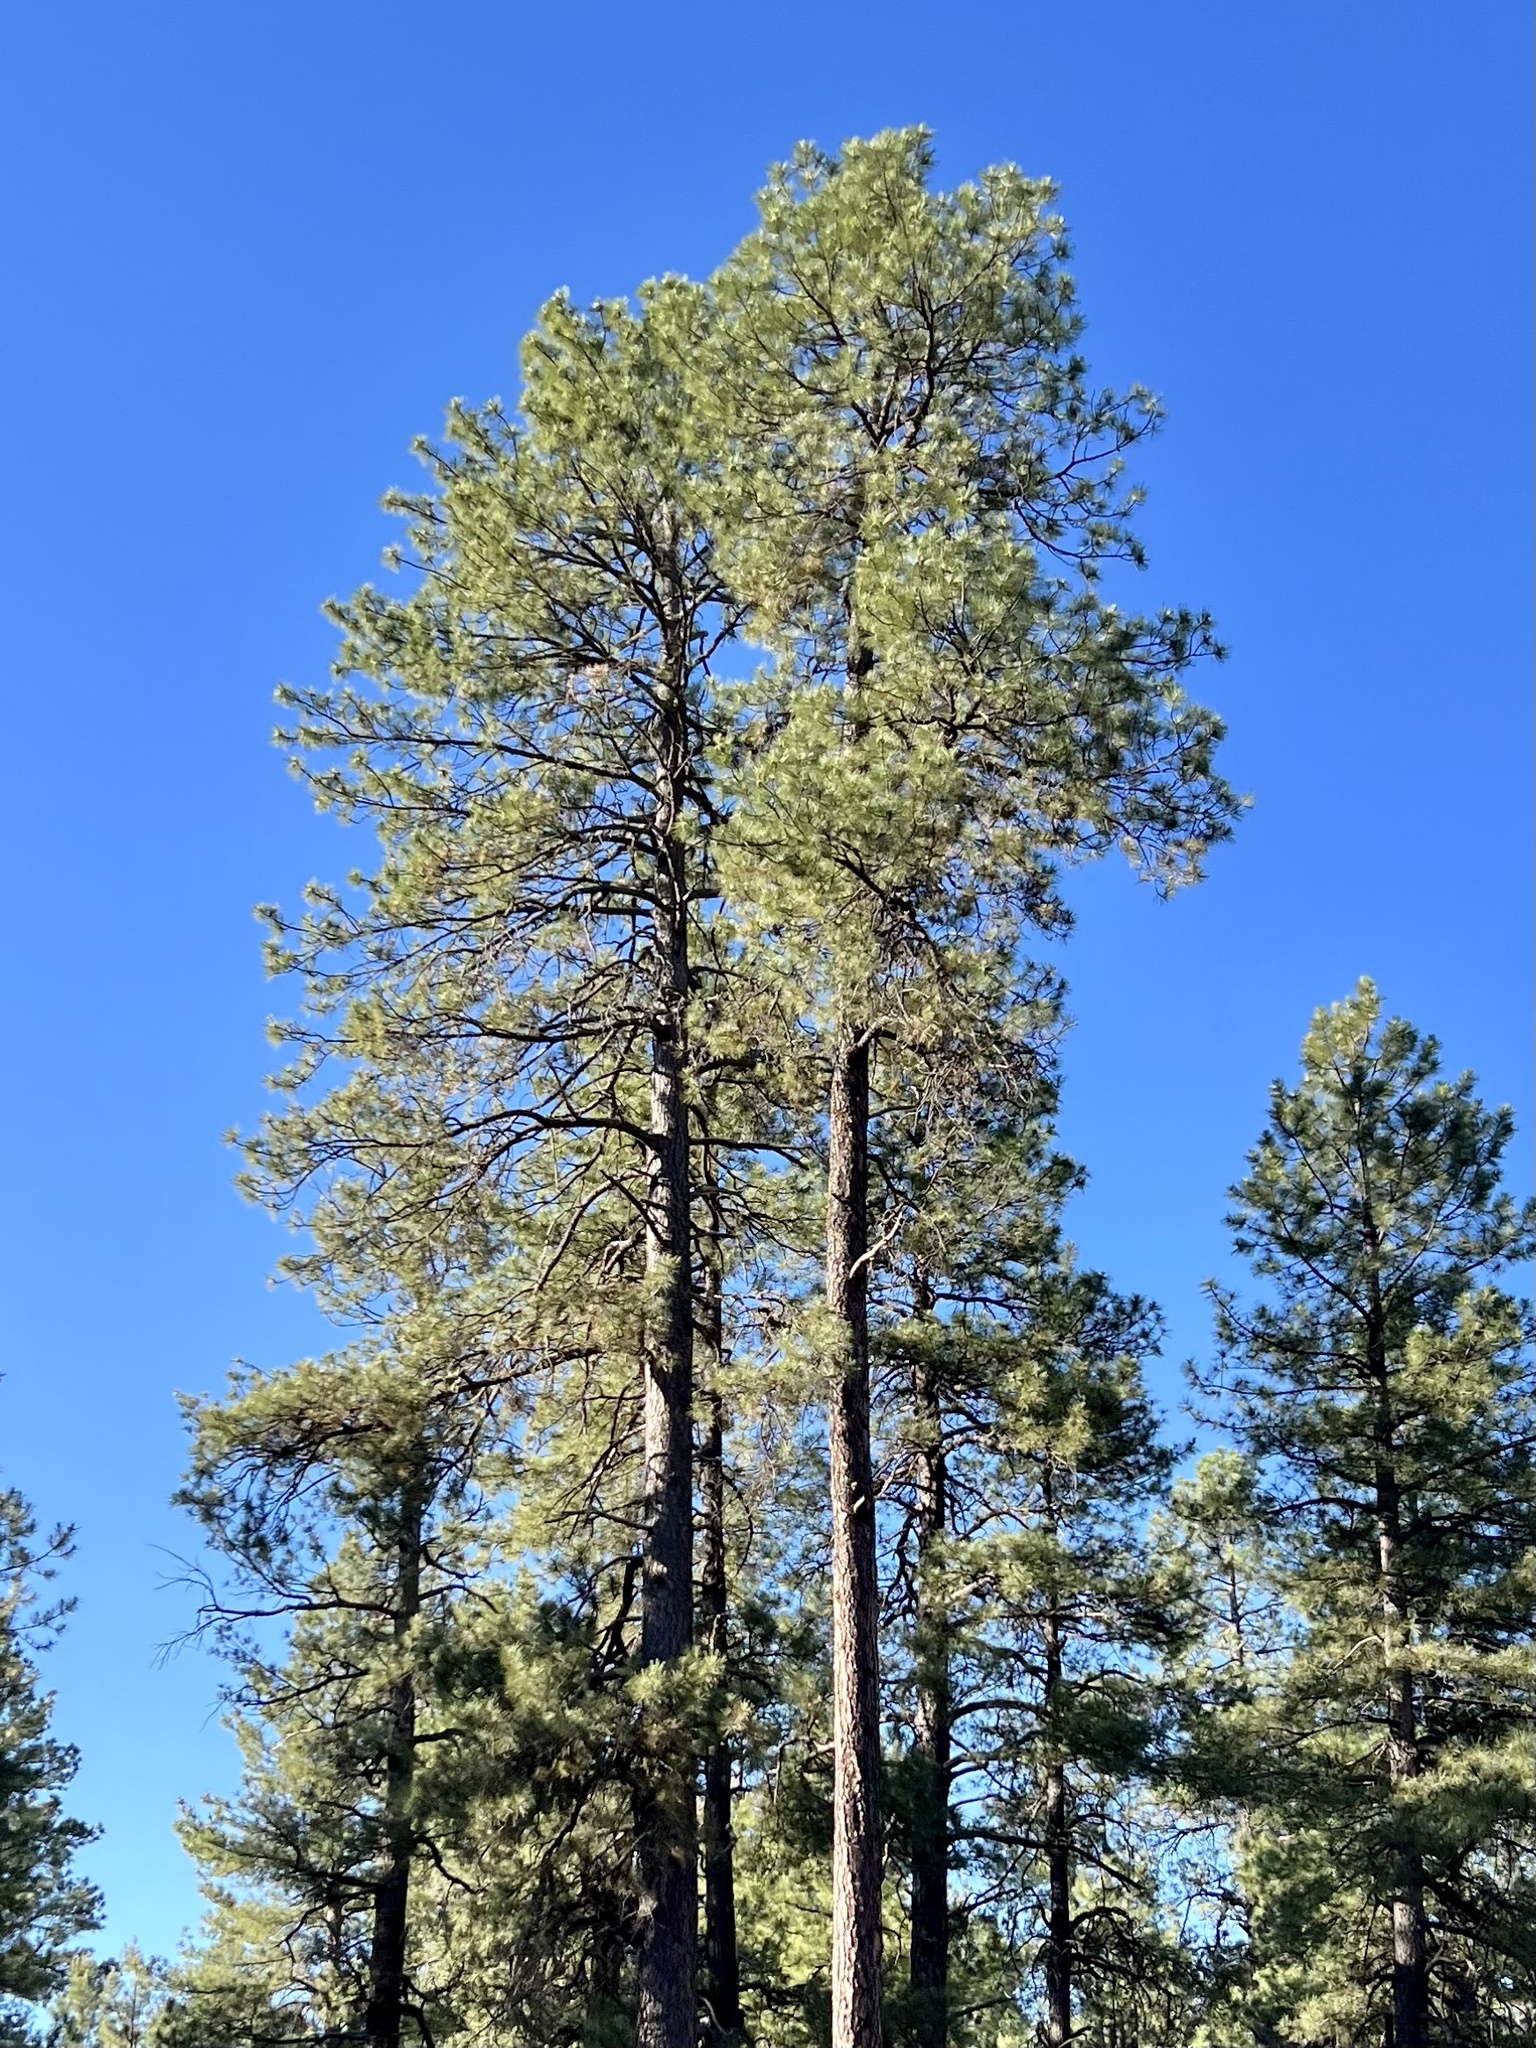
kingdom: Plantae
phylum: Tracheophyta
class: Pinopsida
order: Pinales
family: Pinaceae
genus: Pinus
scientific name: Pinus ponderosa
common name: Western yellow-pine
